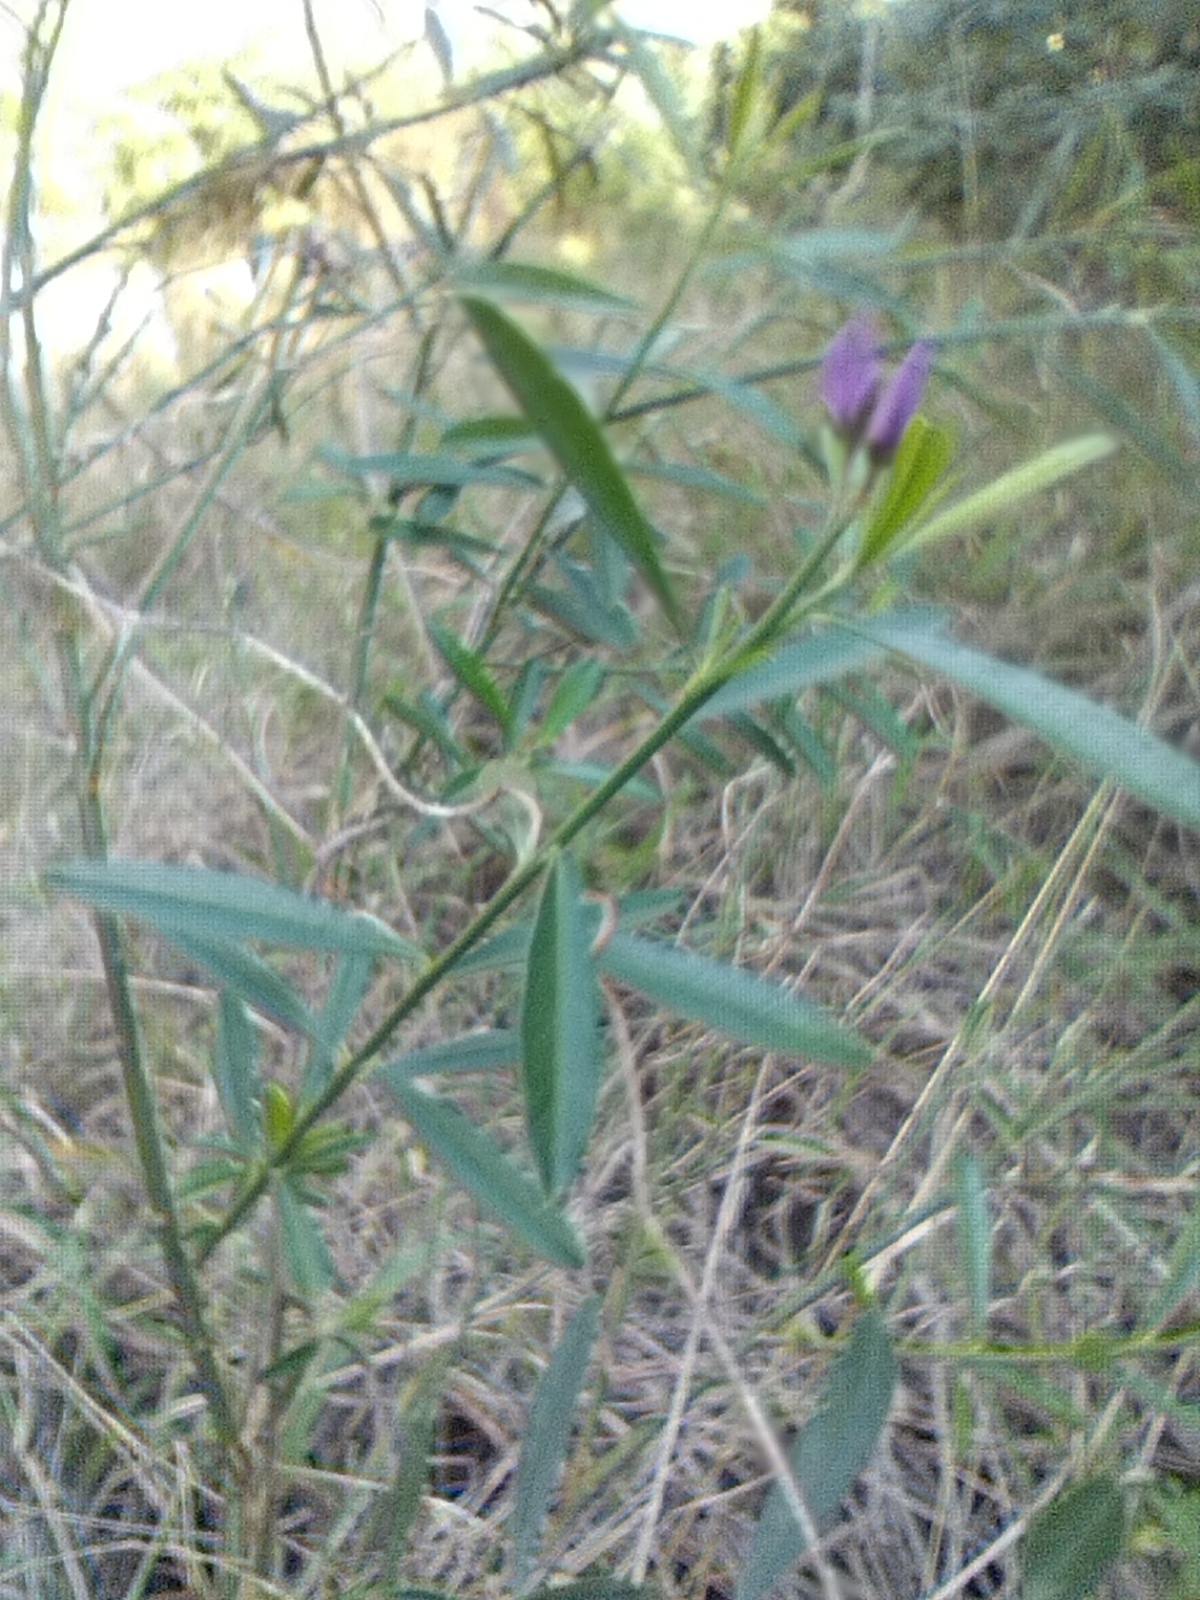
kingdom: Plantae
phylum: Tracheophyta
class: Magnoliopsida
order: Fabales
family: Polygalaceae
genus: Polygala
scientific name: Polygala virgata
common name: Milkwort
